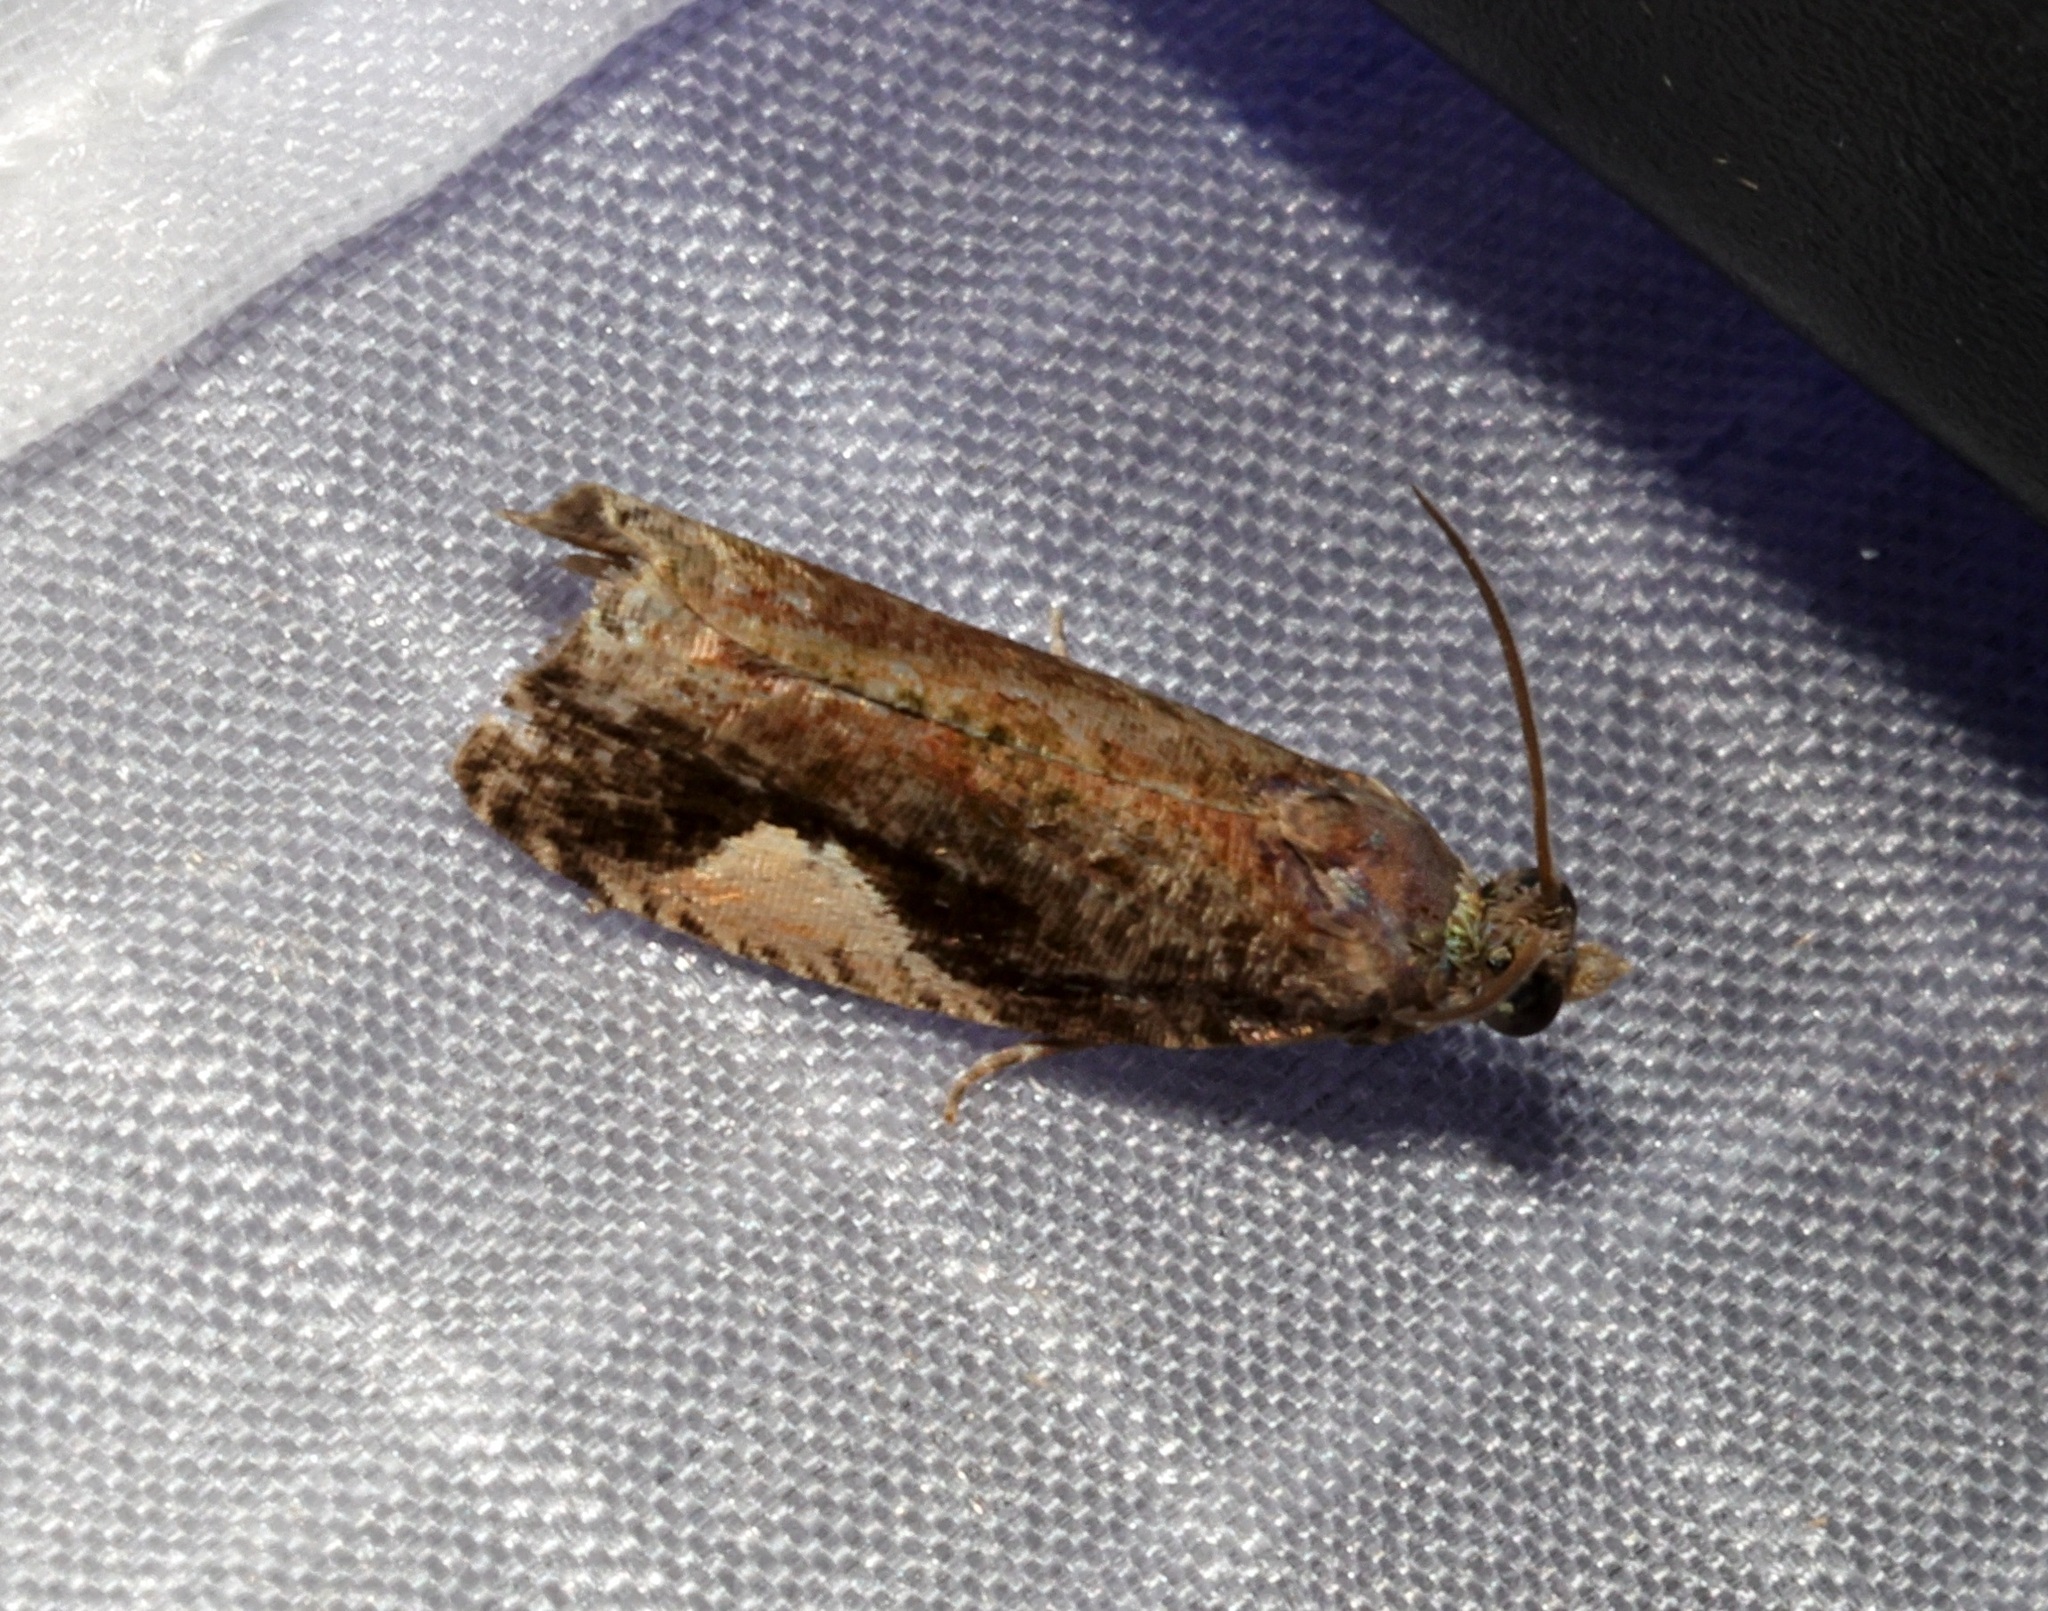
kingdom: Animalia
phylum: Arthropoda
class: Insecta
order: Lepidoptera
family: Tortricidae
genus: Statherotis
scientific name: Statherotis discana
